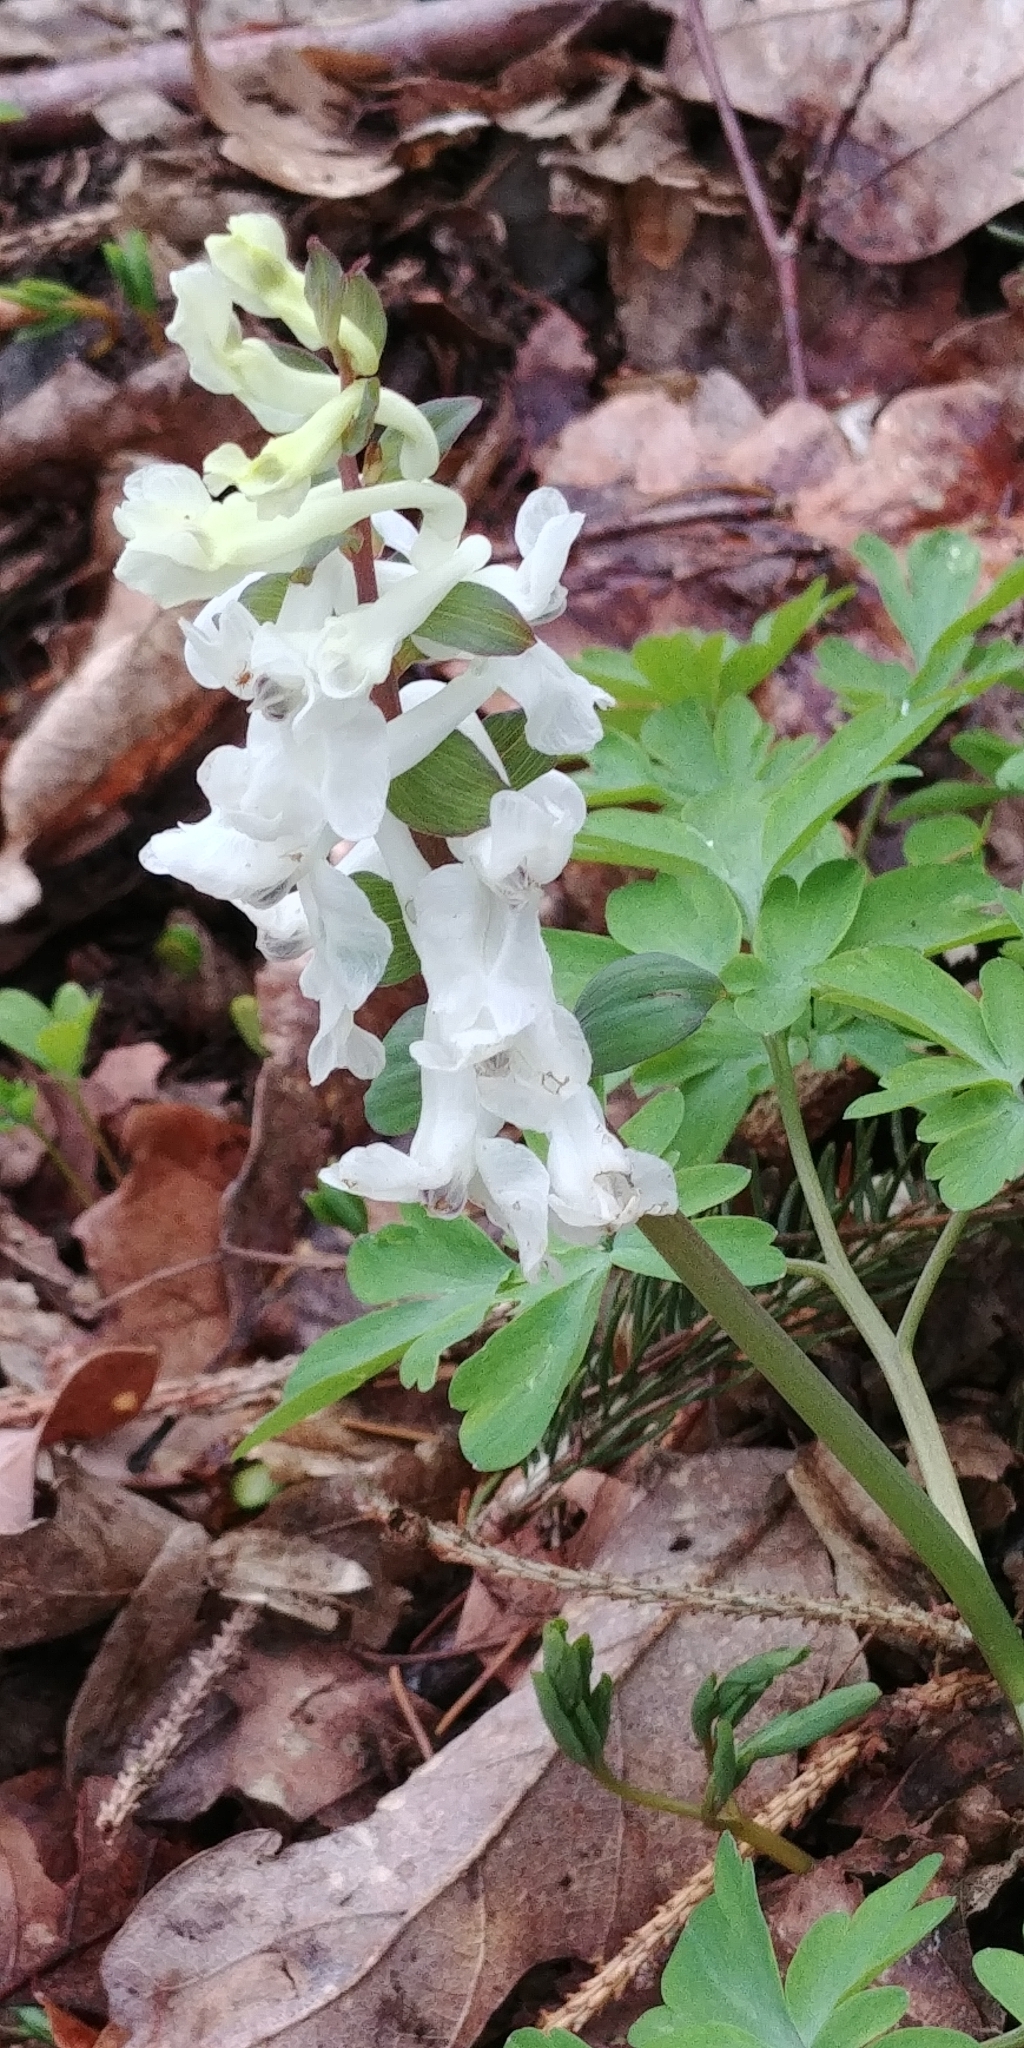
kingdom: Plantae
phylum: Tracheophyta
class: Magnoliopsida
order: Ranunculales
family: Papaveraceae
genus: Corydalis
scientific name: Corydalis cava
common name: Hollowroot
